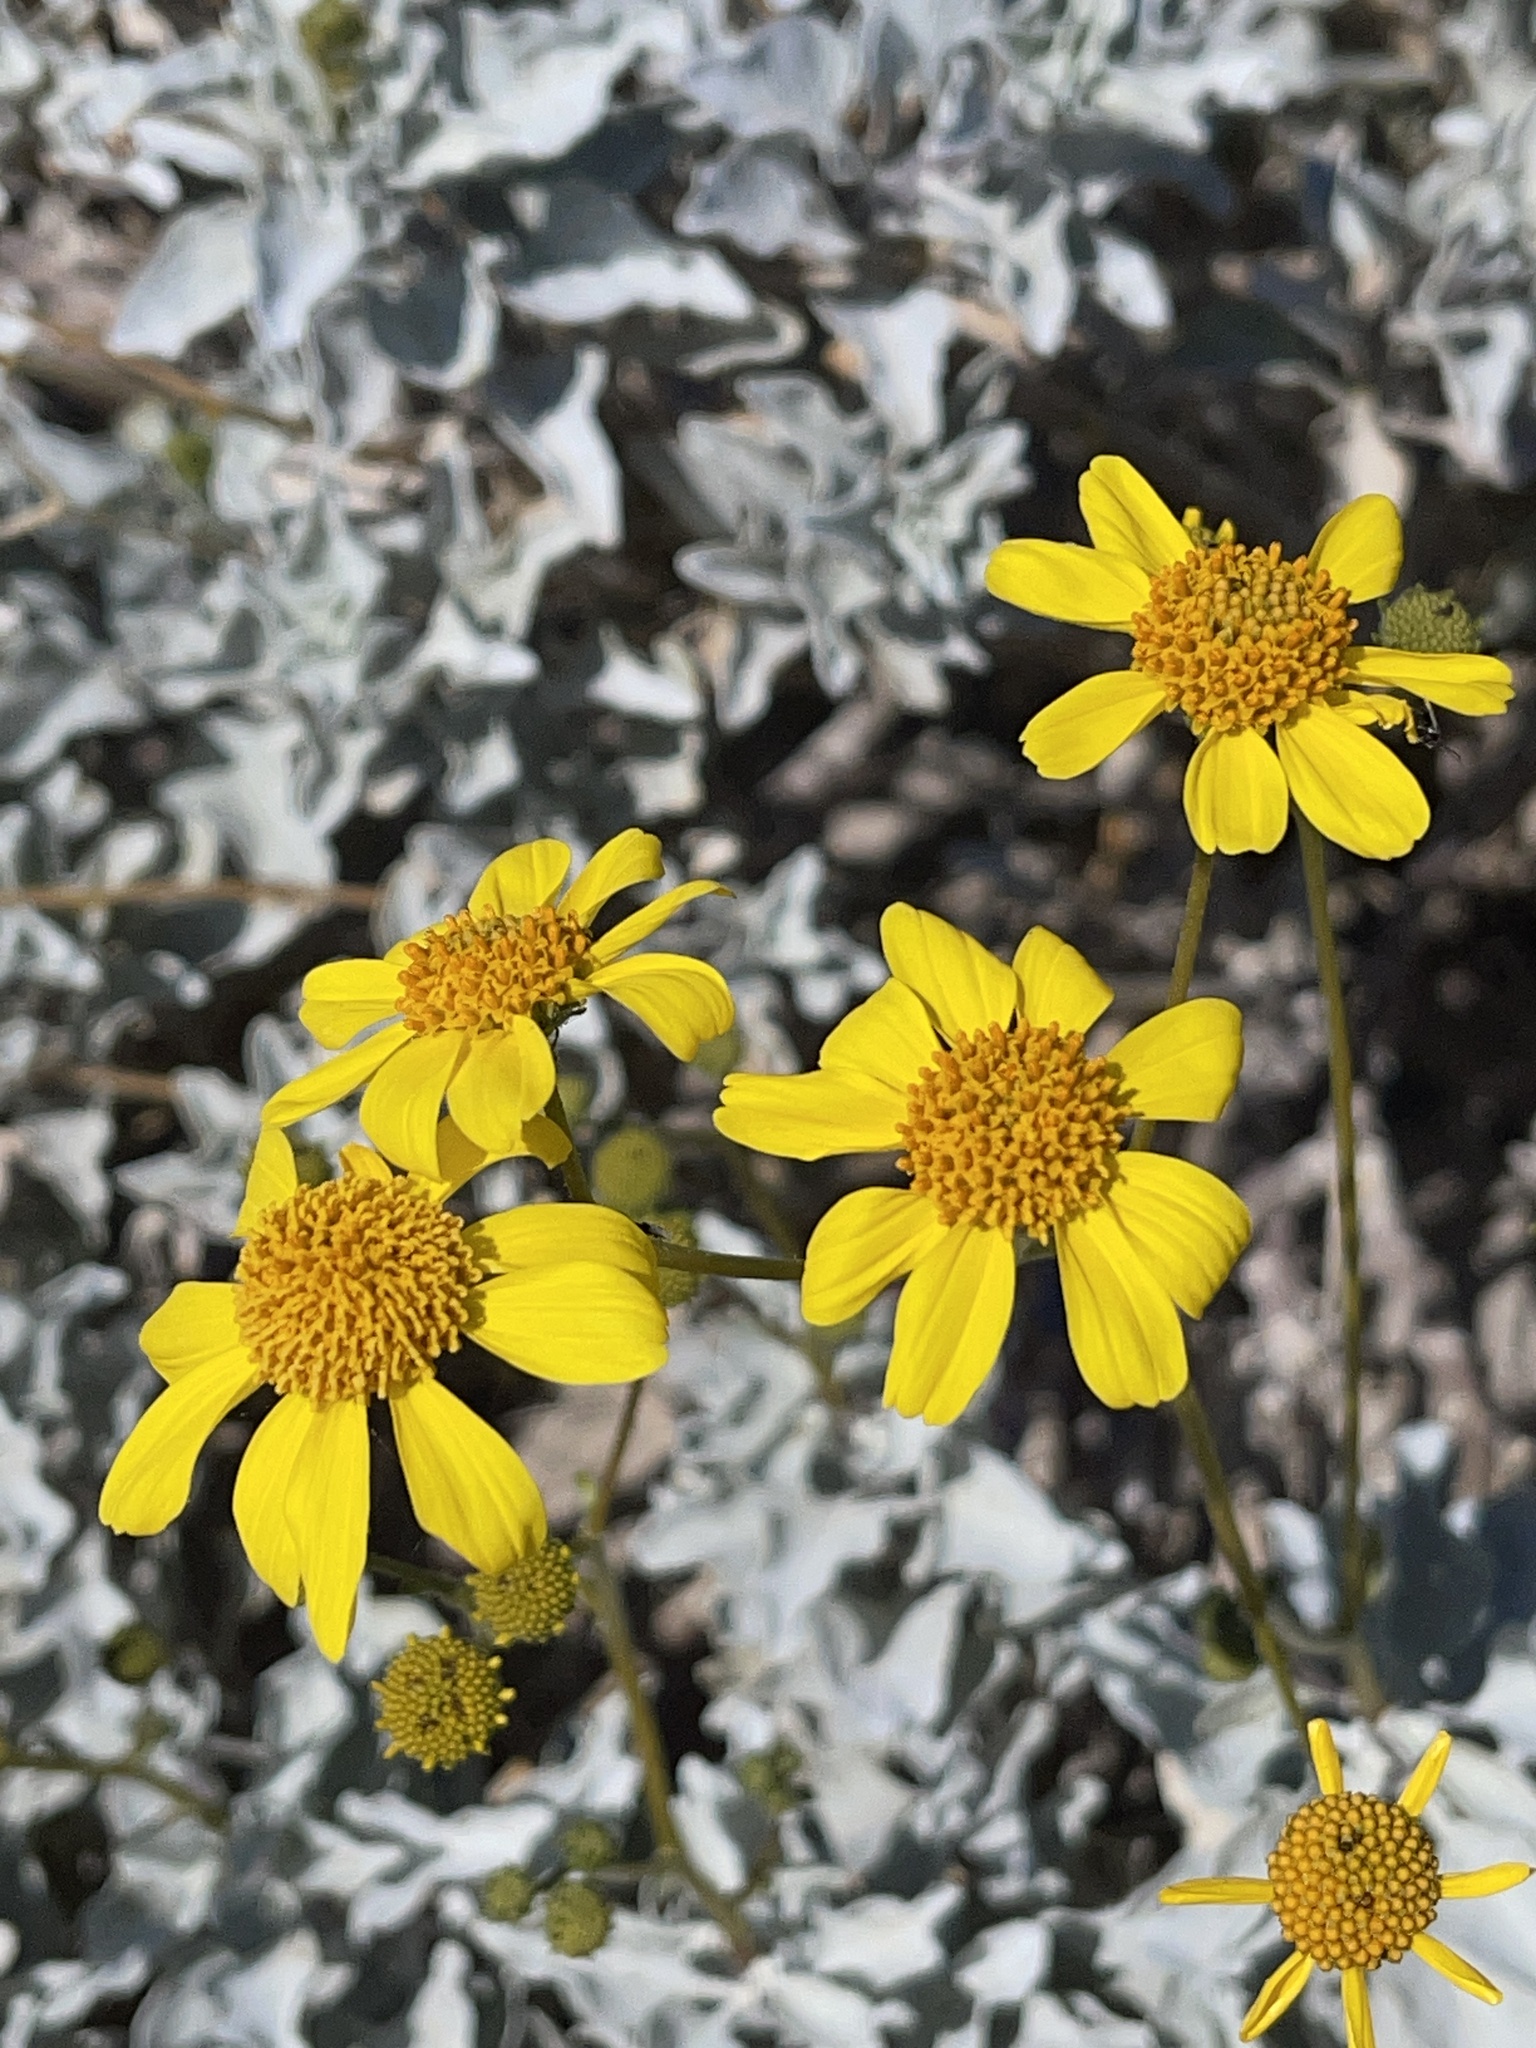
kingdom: Plantae
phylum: Tracheophyta
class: Magnoliopsida
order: Asterales
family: Asteraceae
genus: Encelia
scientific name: Encelia farinosa
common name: Brittlebush
